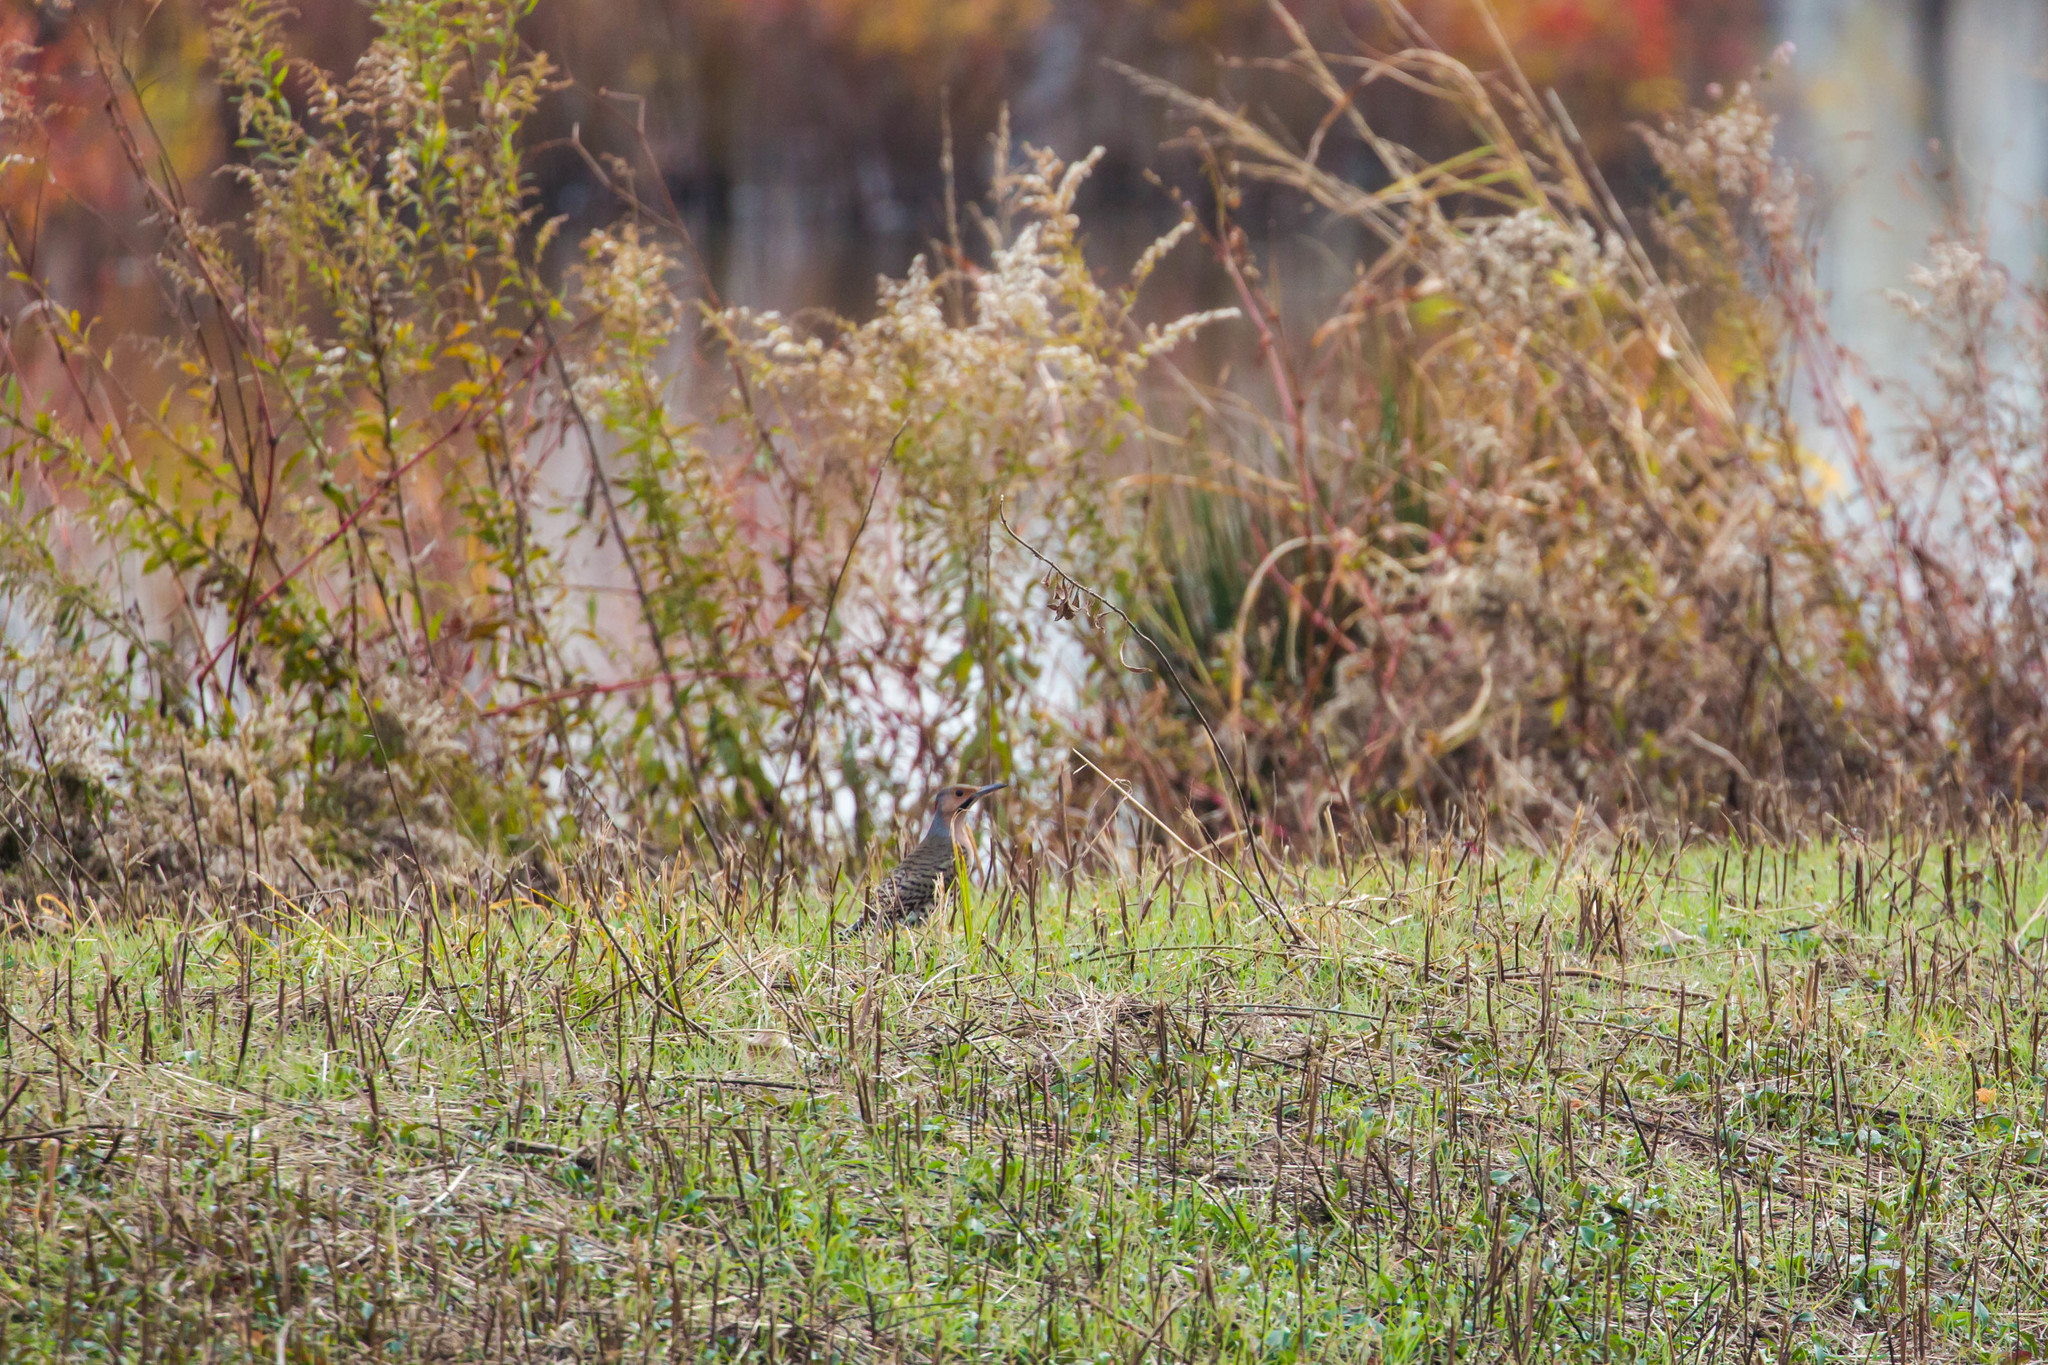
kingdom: Animalia
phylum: Chordata
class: Aves
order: Piciformes
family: Picidae
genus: Colaptes
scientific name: Colaptes auratus
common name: Northern flicker
